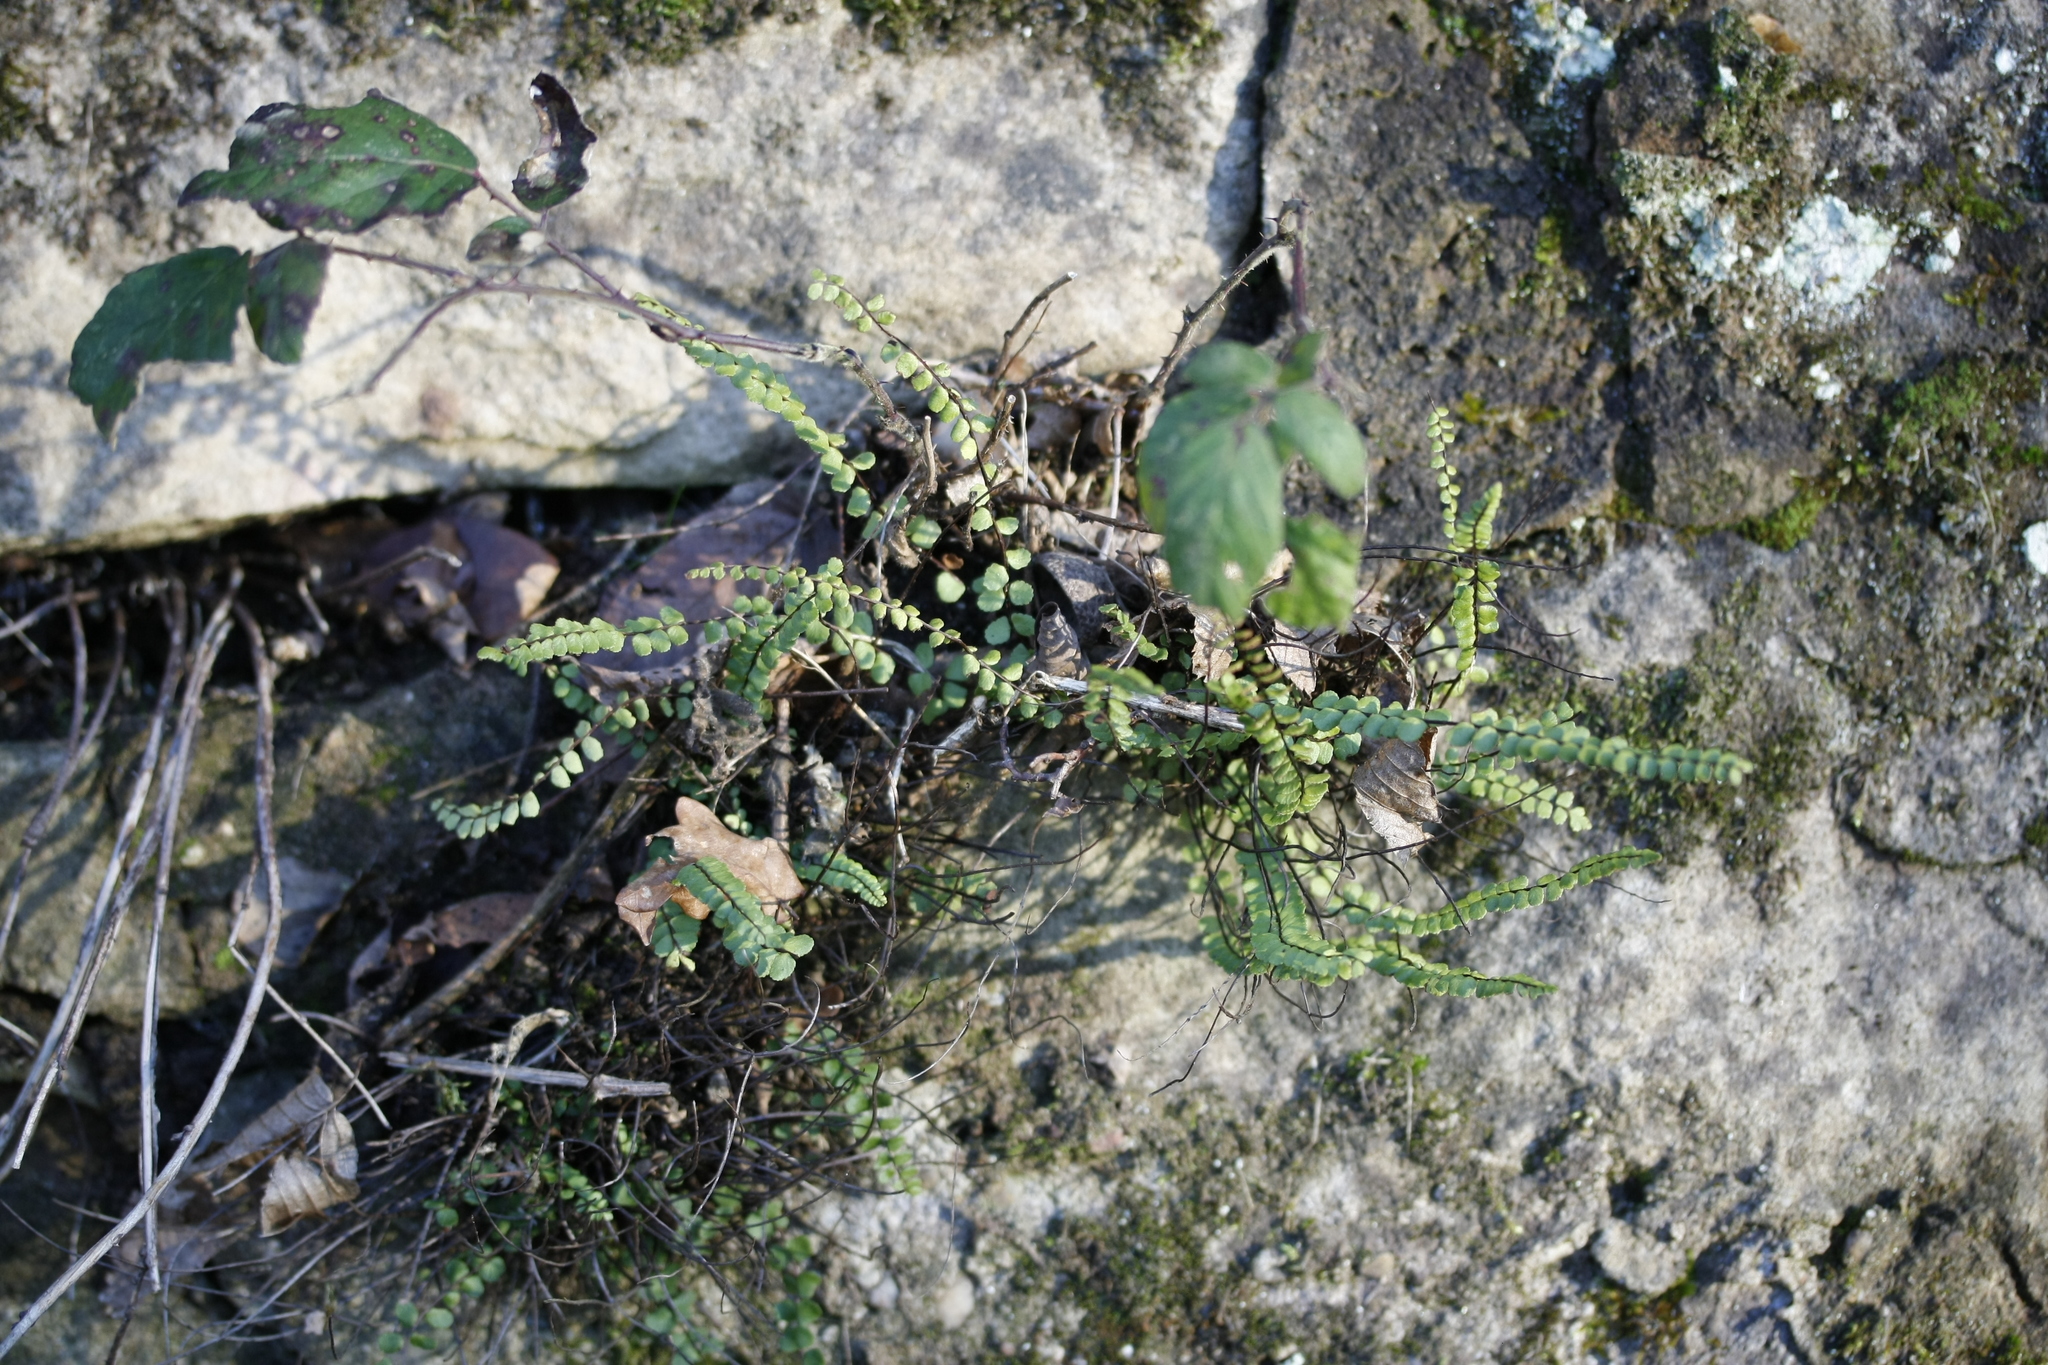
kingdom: Plantae
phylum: Tracheophyta
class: Polypodiopsida
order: Polypodiales
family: Aspleniaceae
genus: Asplenium
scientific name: Asplenium trichomanes
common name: Maidenhair spleenwort
